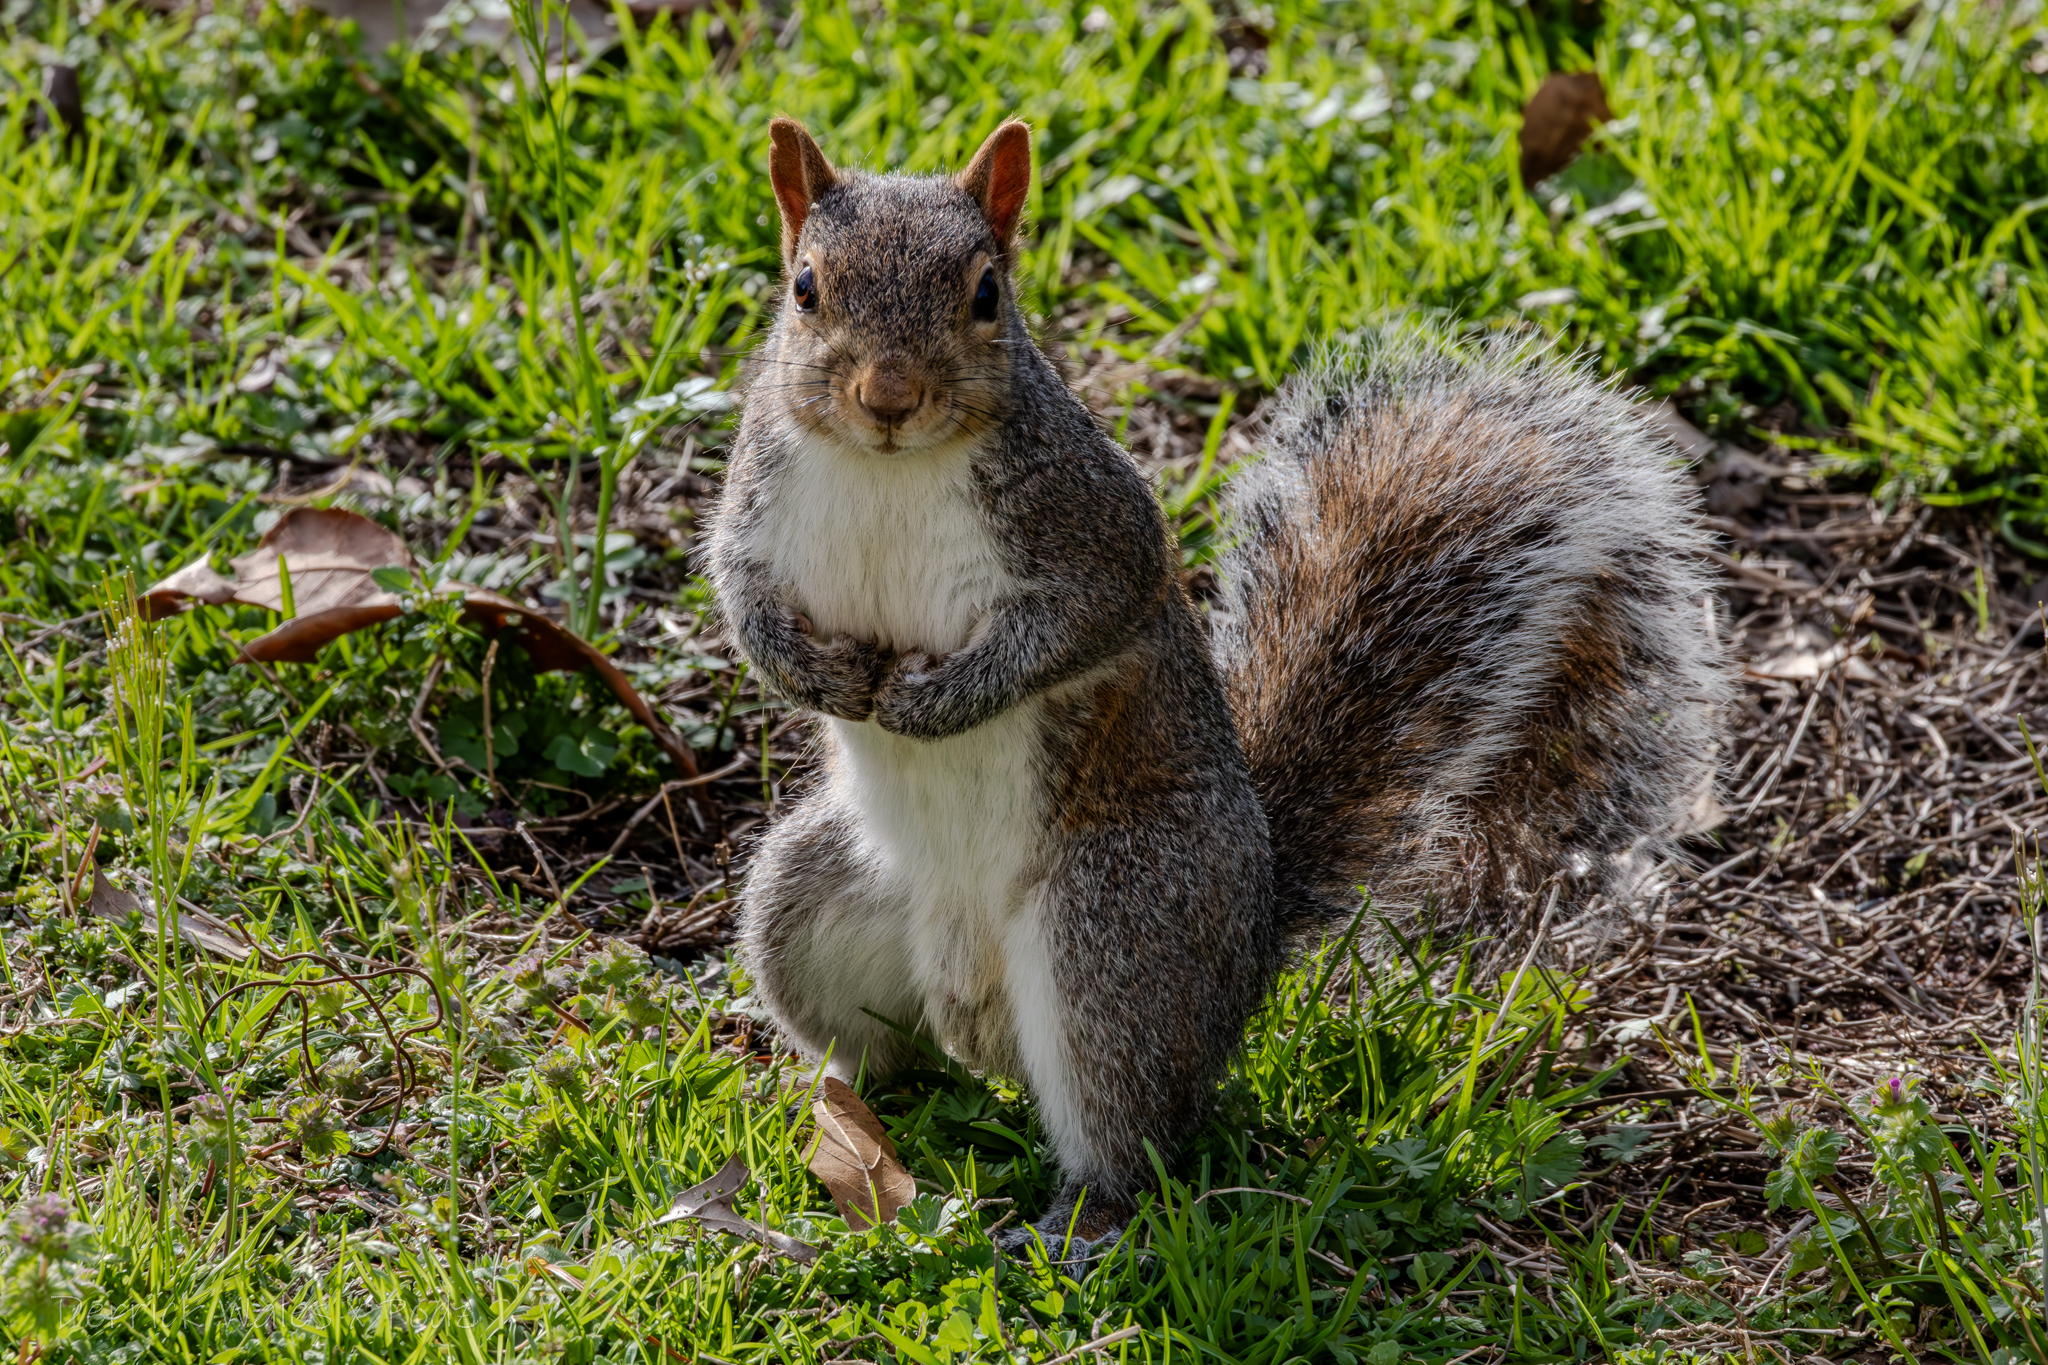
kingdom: Animalia
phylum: Chordata
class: Mammalia
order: Rodentia
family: Sciuridae
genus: Sciurus
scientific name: Sciurus carolinensis
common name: Eastern gray squirrel
